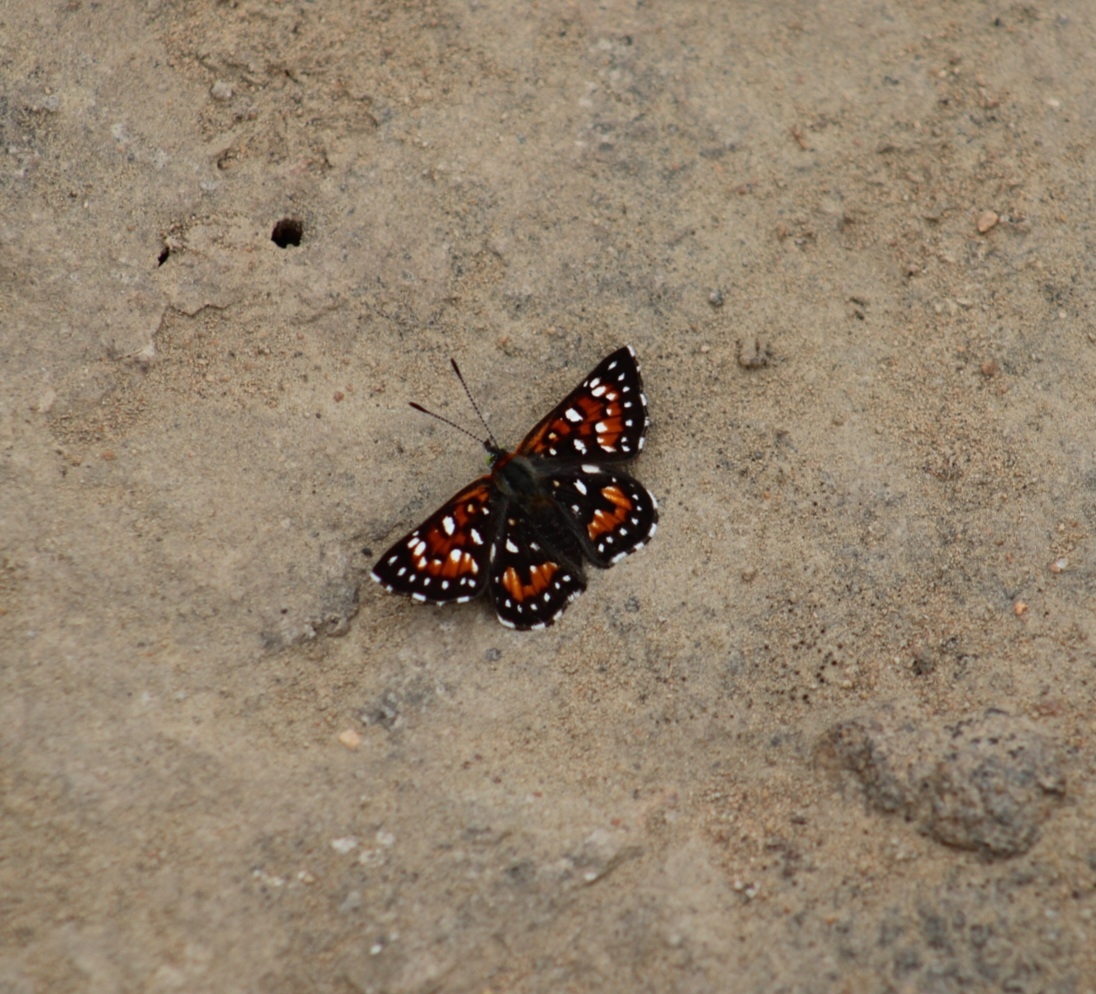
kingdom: Animalia
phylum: Arthropoda
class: Insecta
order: Lepidoptera
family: Riodinidae
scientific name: Riodinidae
